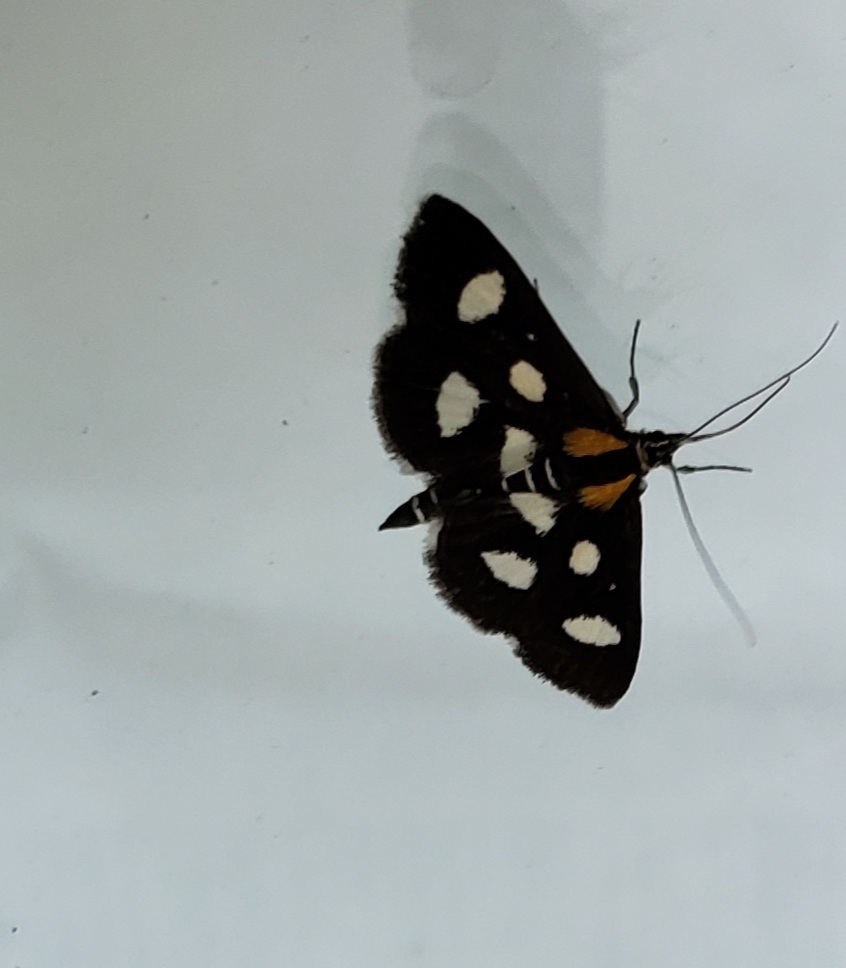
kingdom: Animalia
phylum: Arthropoda
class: Insecta
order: Lepidoptera
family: Crambidae
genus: Anania
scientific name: Anania funebris
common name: White-spotted sable moth
